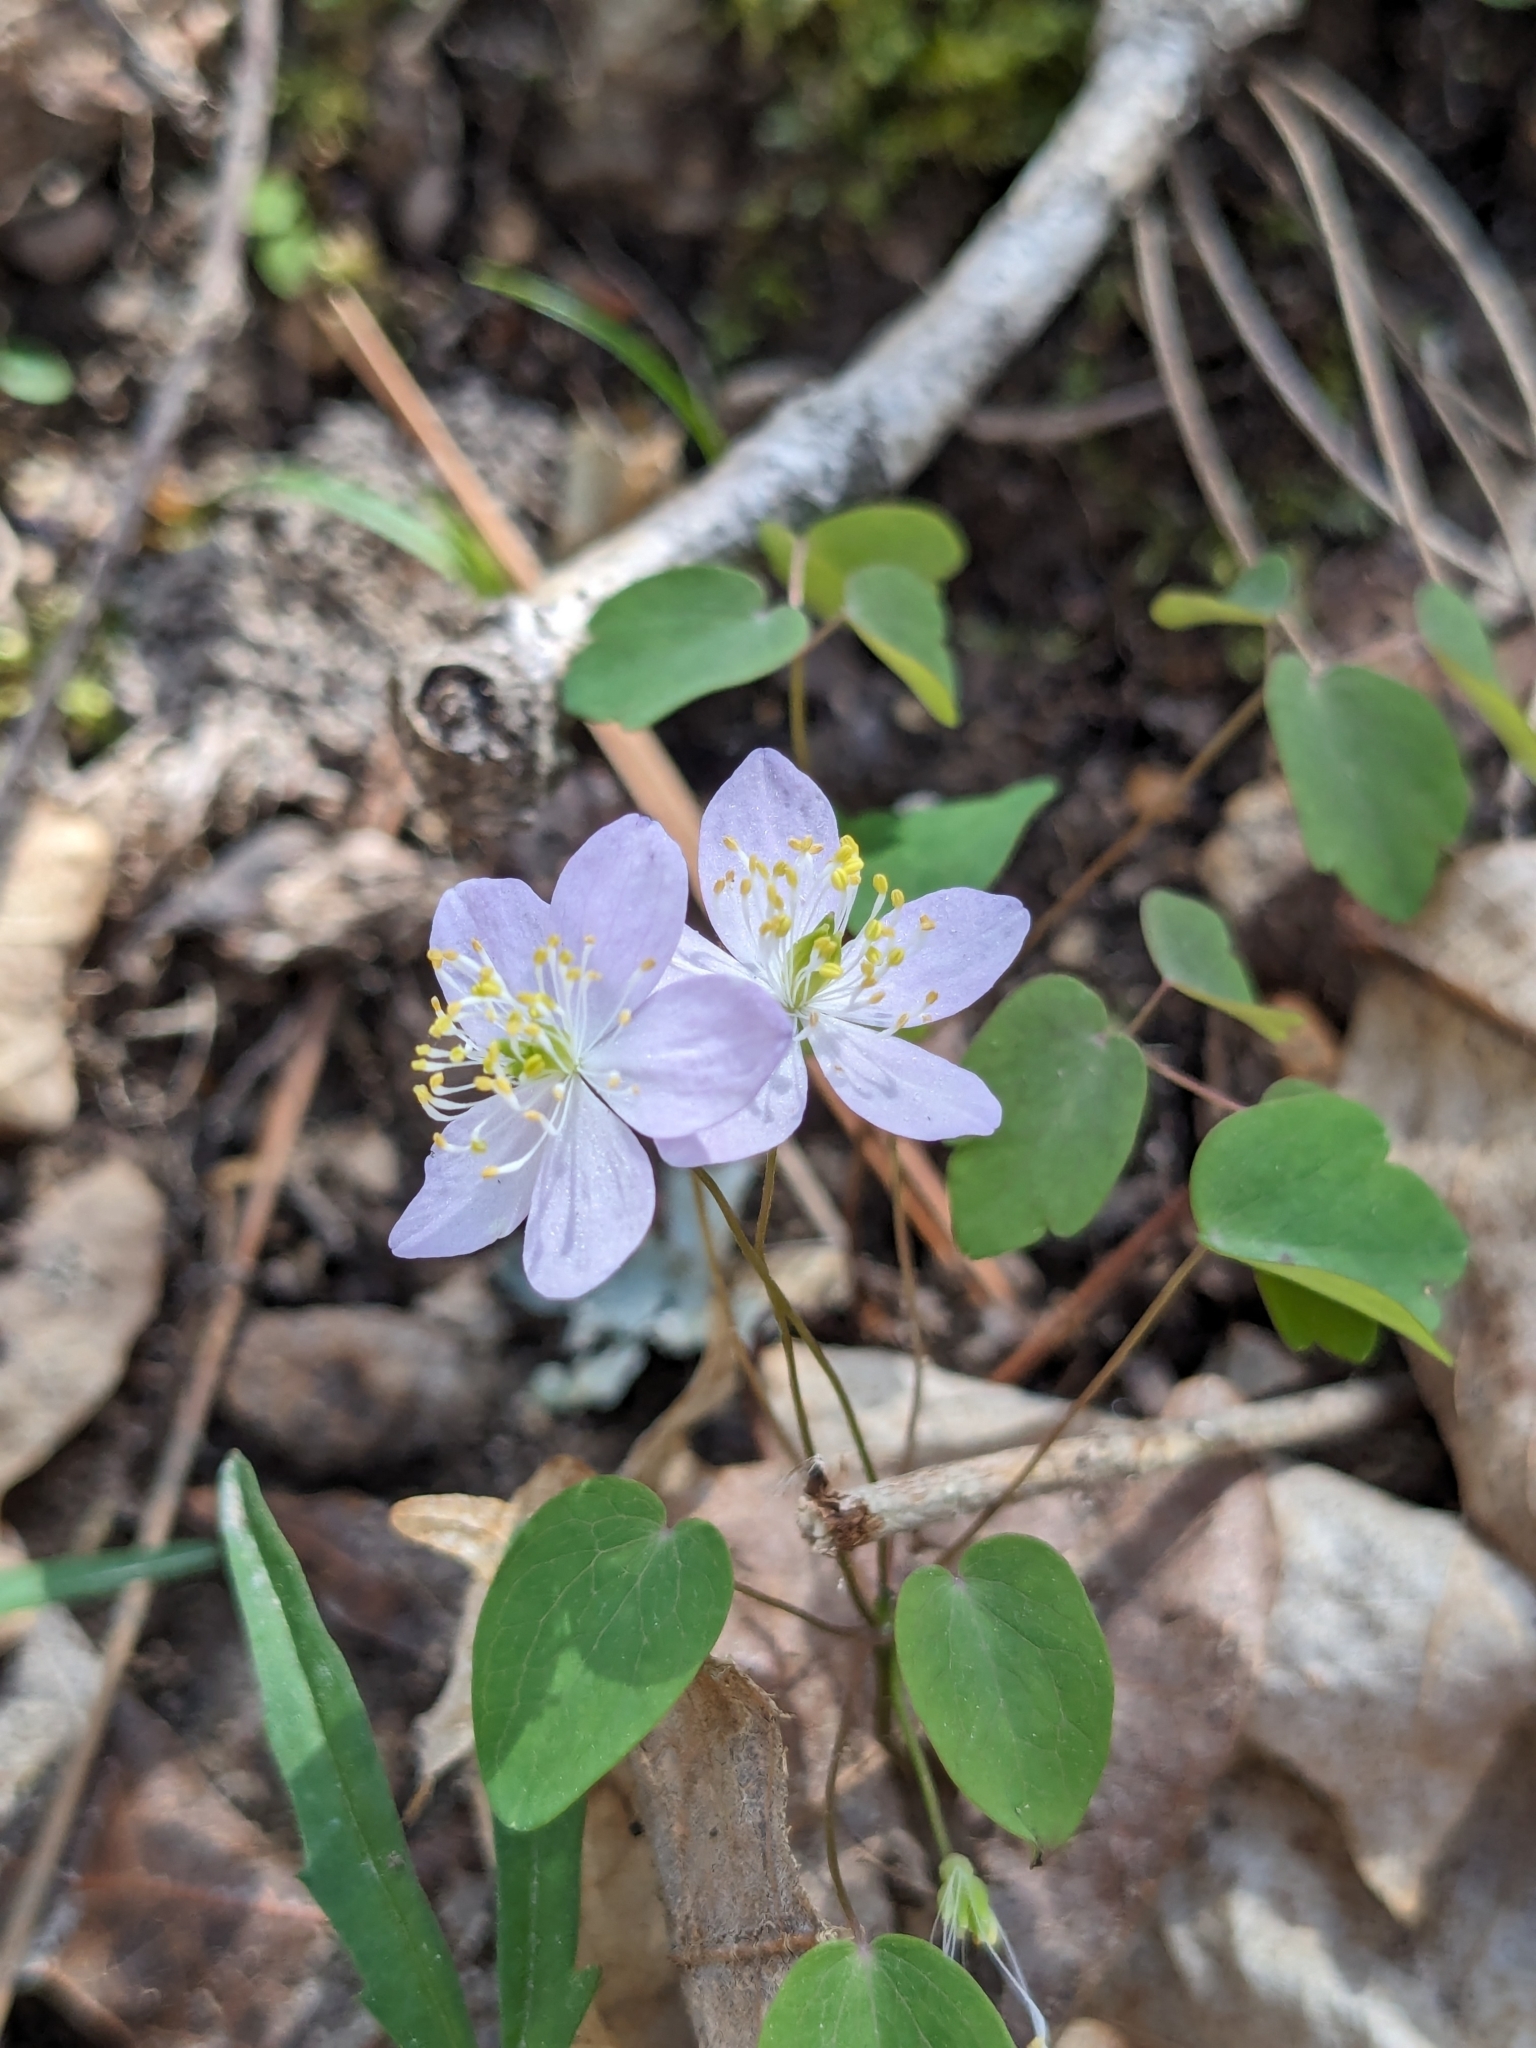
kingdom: Plantae
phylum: Tracheophyta
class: Magnoliopsida
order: Ranunculales
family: Ranunculaceae
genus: Thalictrum
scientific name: Thalictrum thalictroides
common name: Rue-anemone
